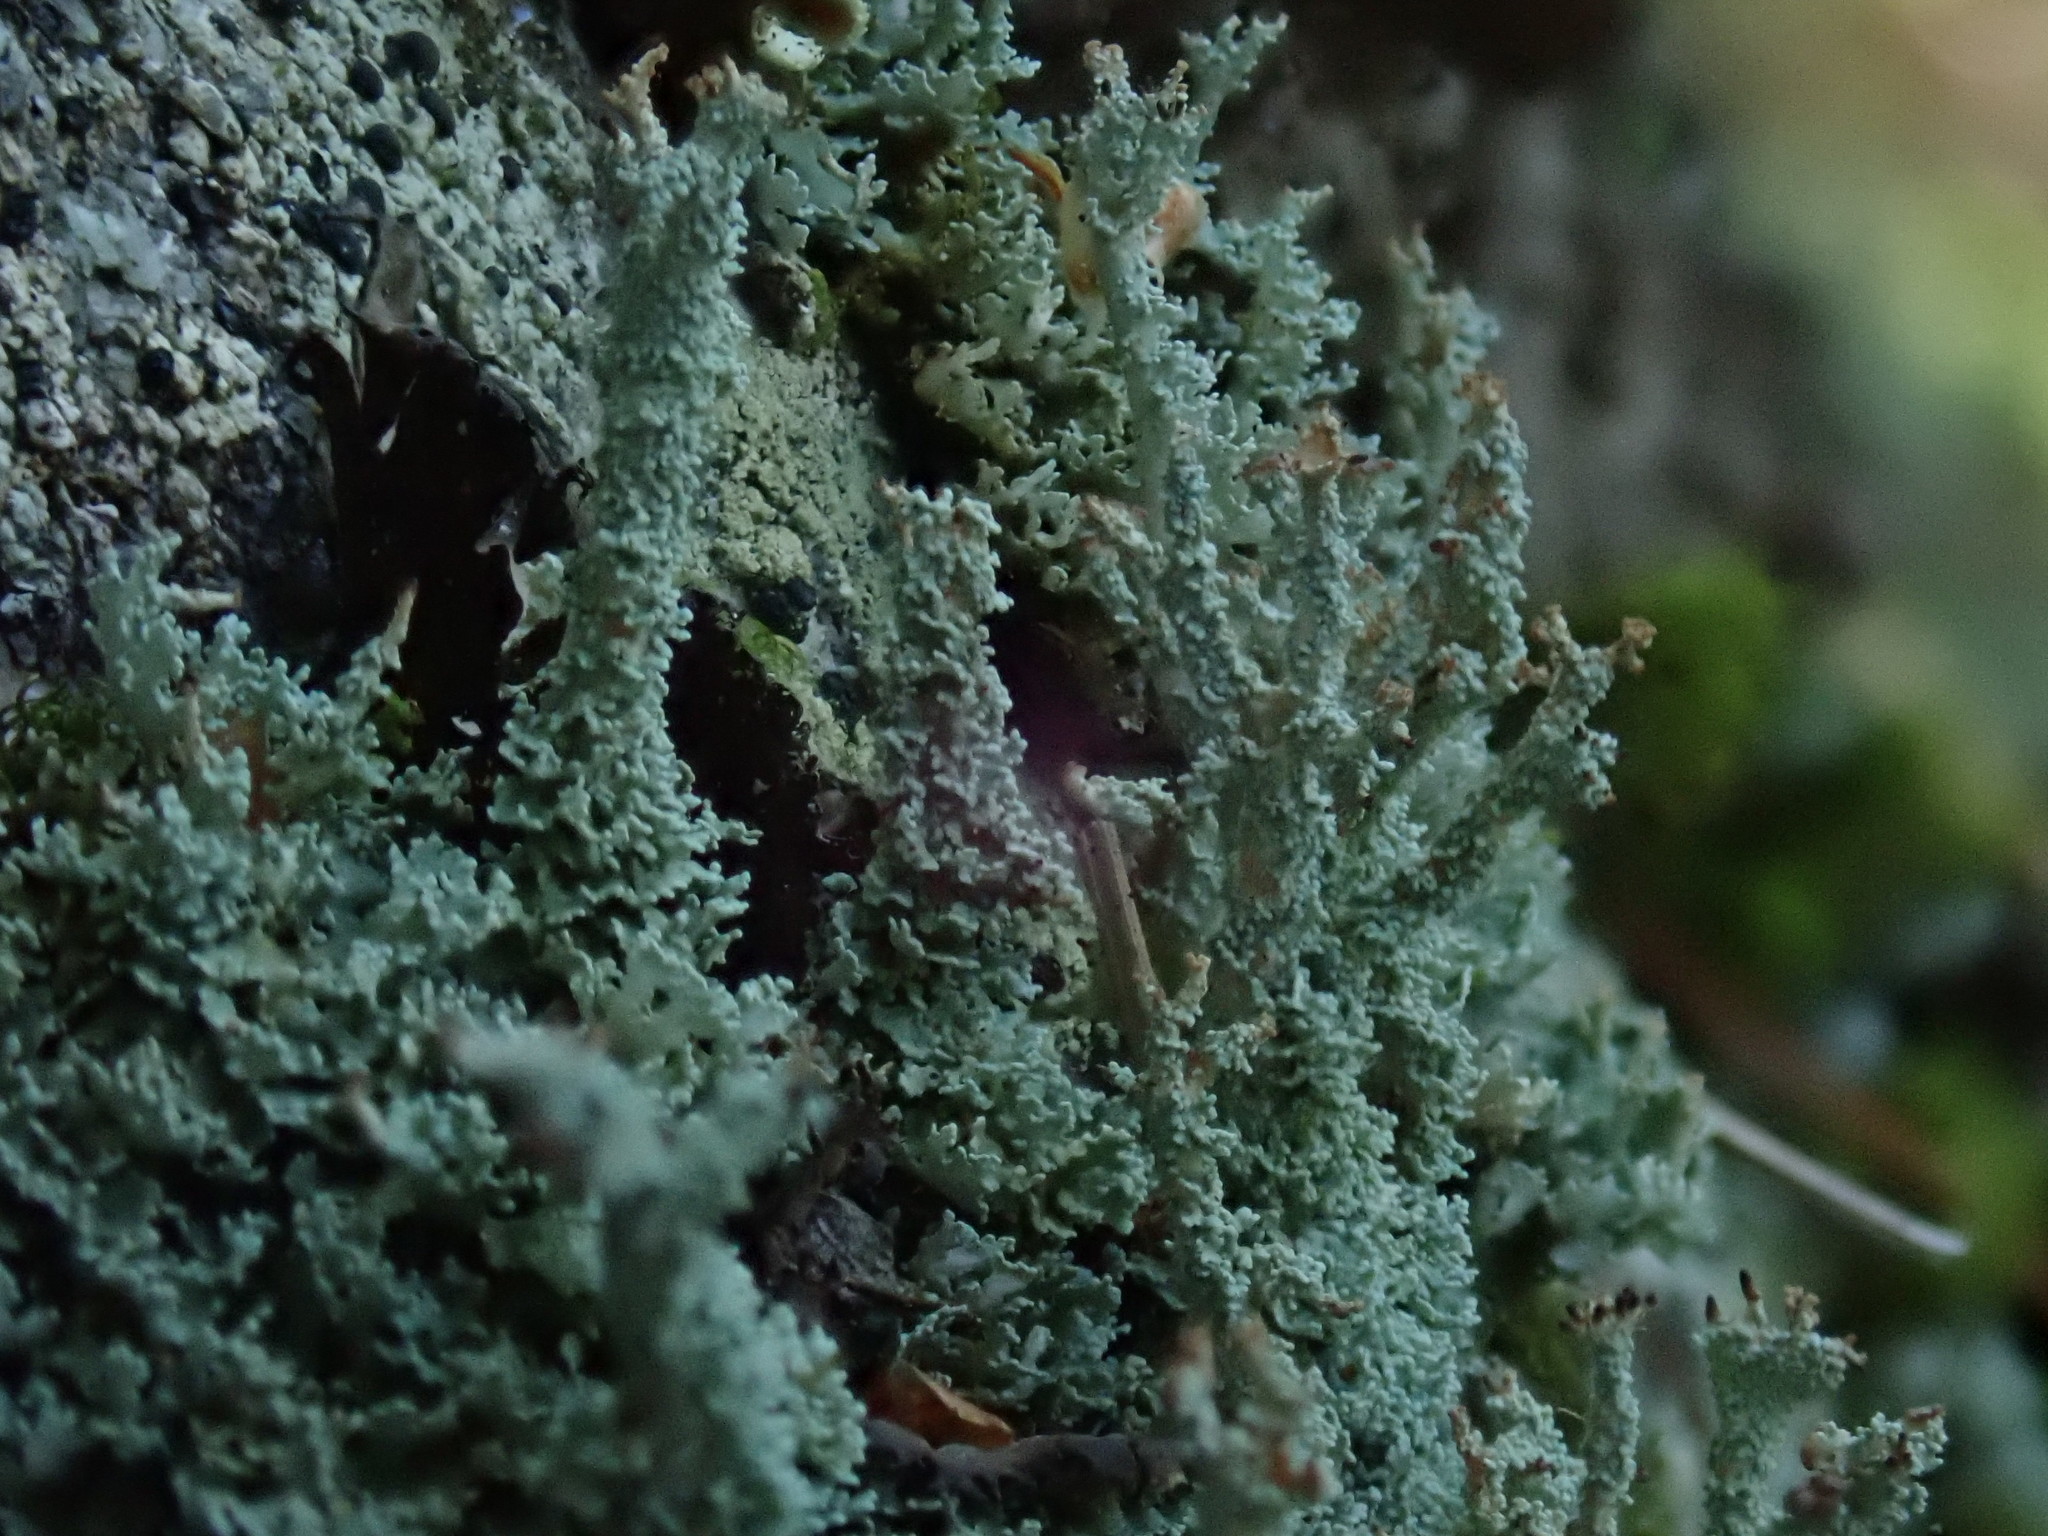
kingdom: Fungi
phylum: Ascomycota
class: Lecanoromycetes
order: Lecanorales
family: Cladoniaceae
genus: Cladonia
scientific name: Cladonia squamosa
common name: Dragon horn
